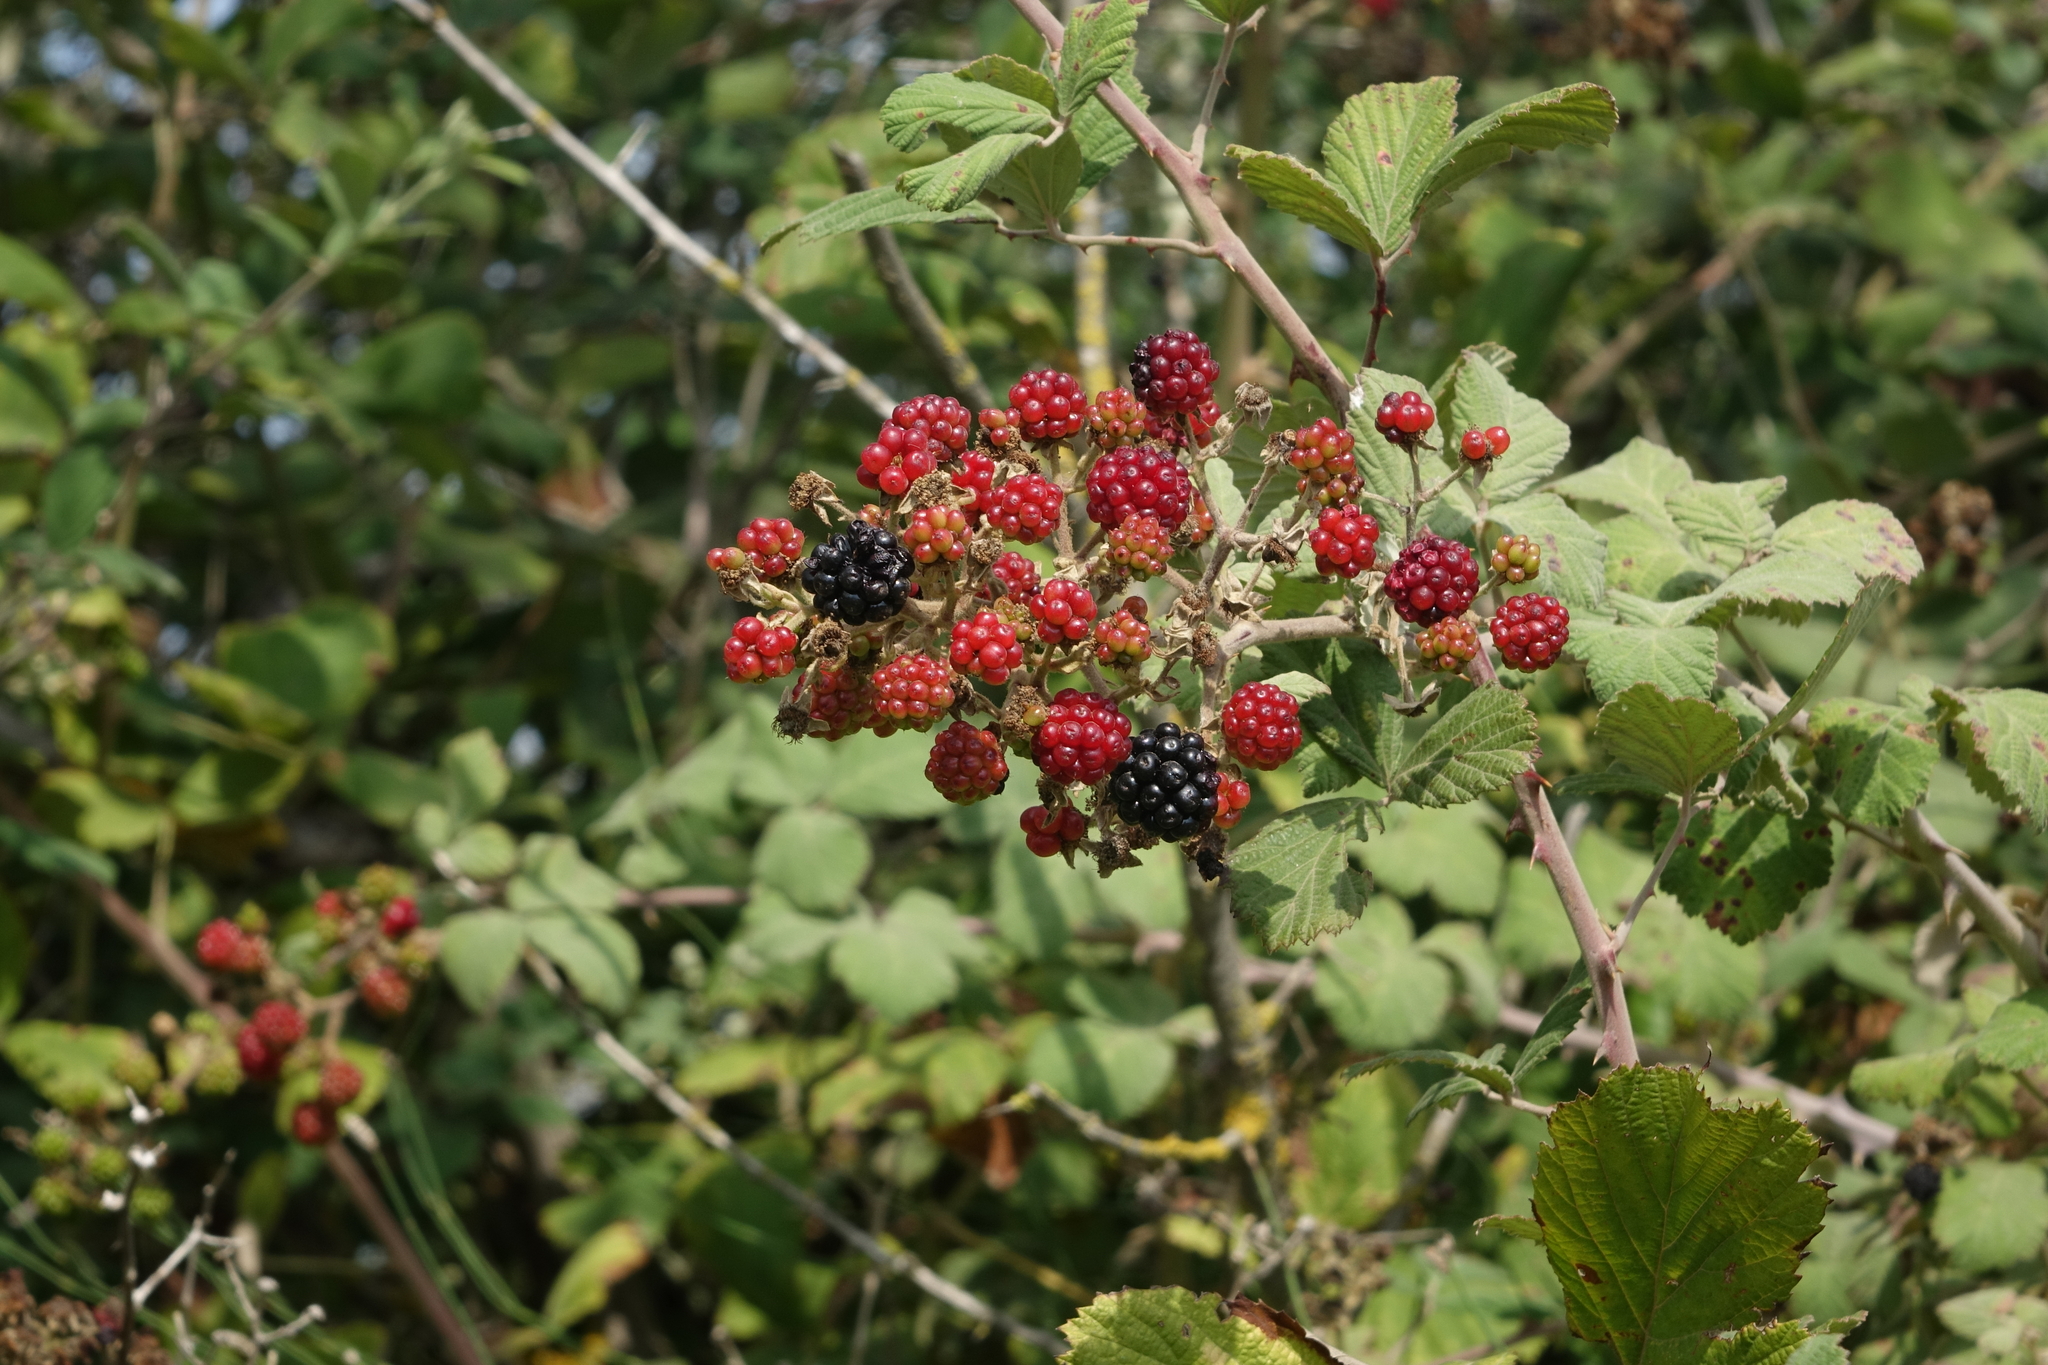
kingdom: Plantae
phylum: Tracheophyta
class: Magnoliopsida
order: Rosales
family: Rosaceae
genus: Rubus
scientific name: Rubus sanctus
